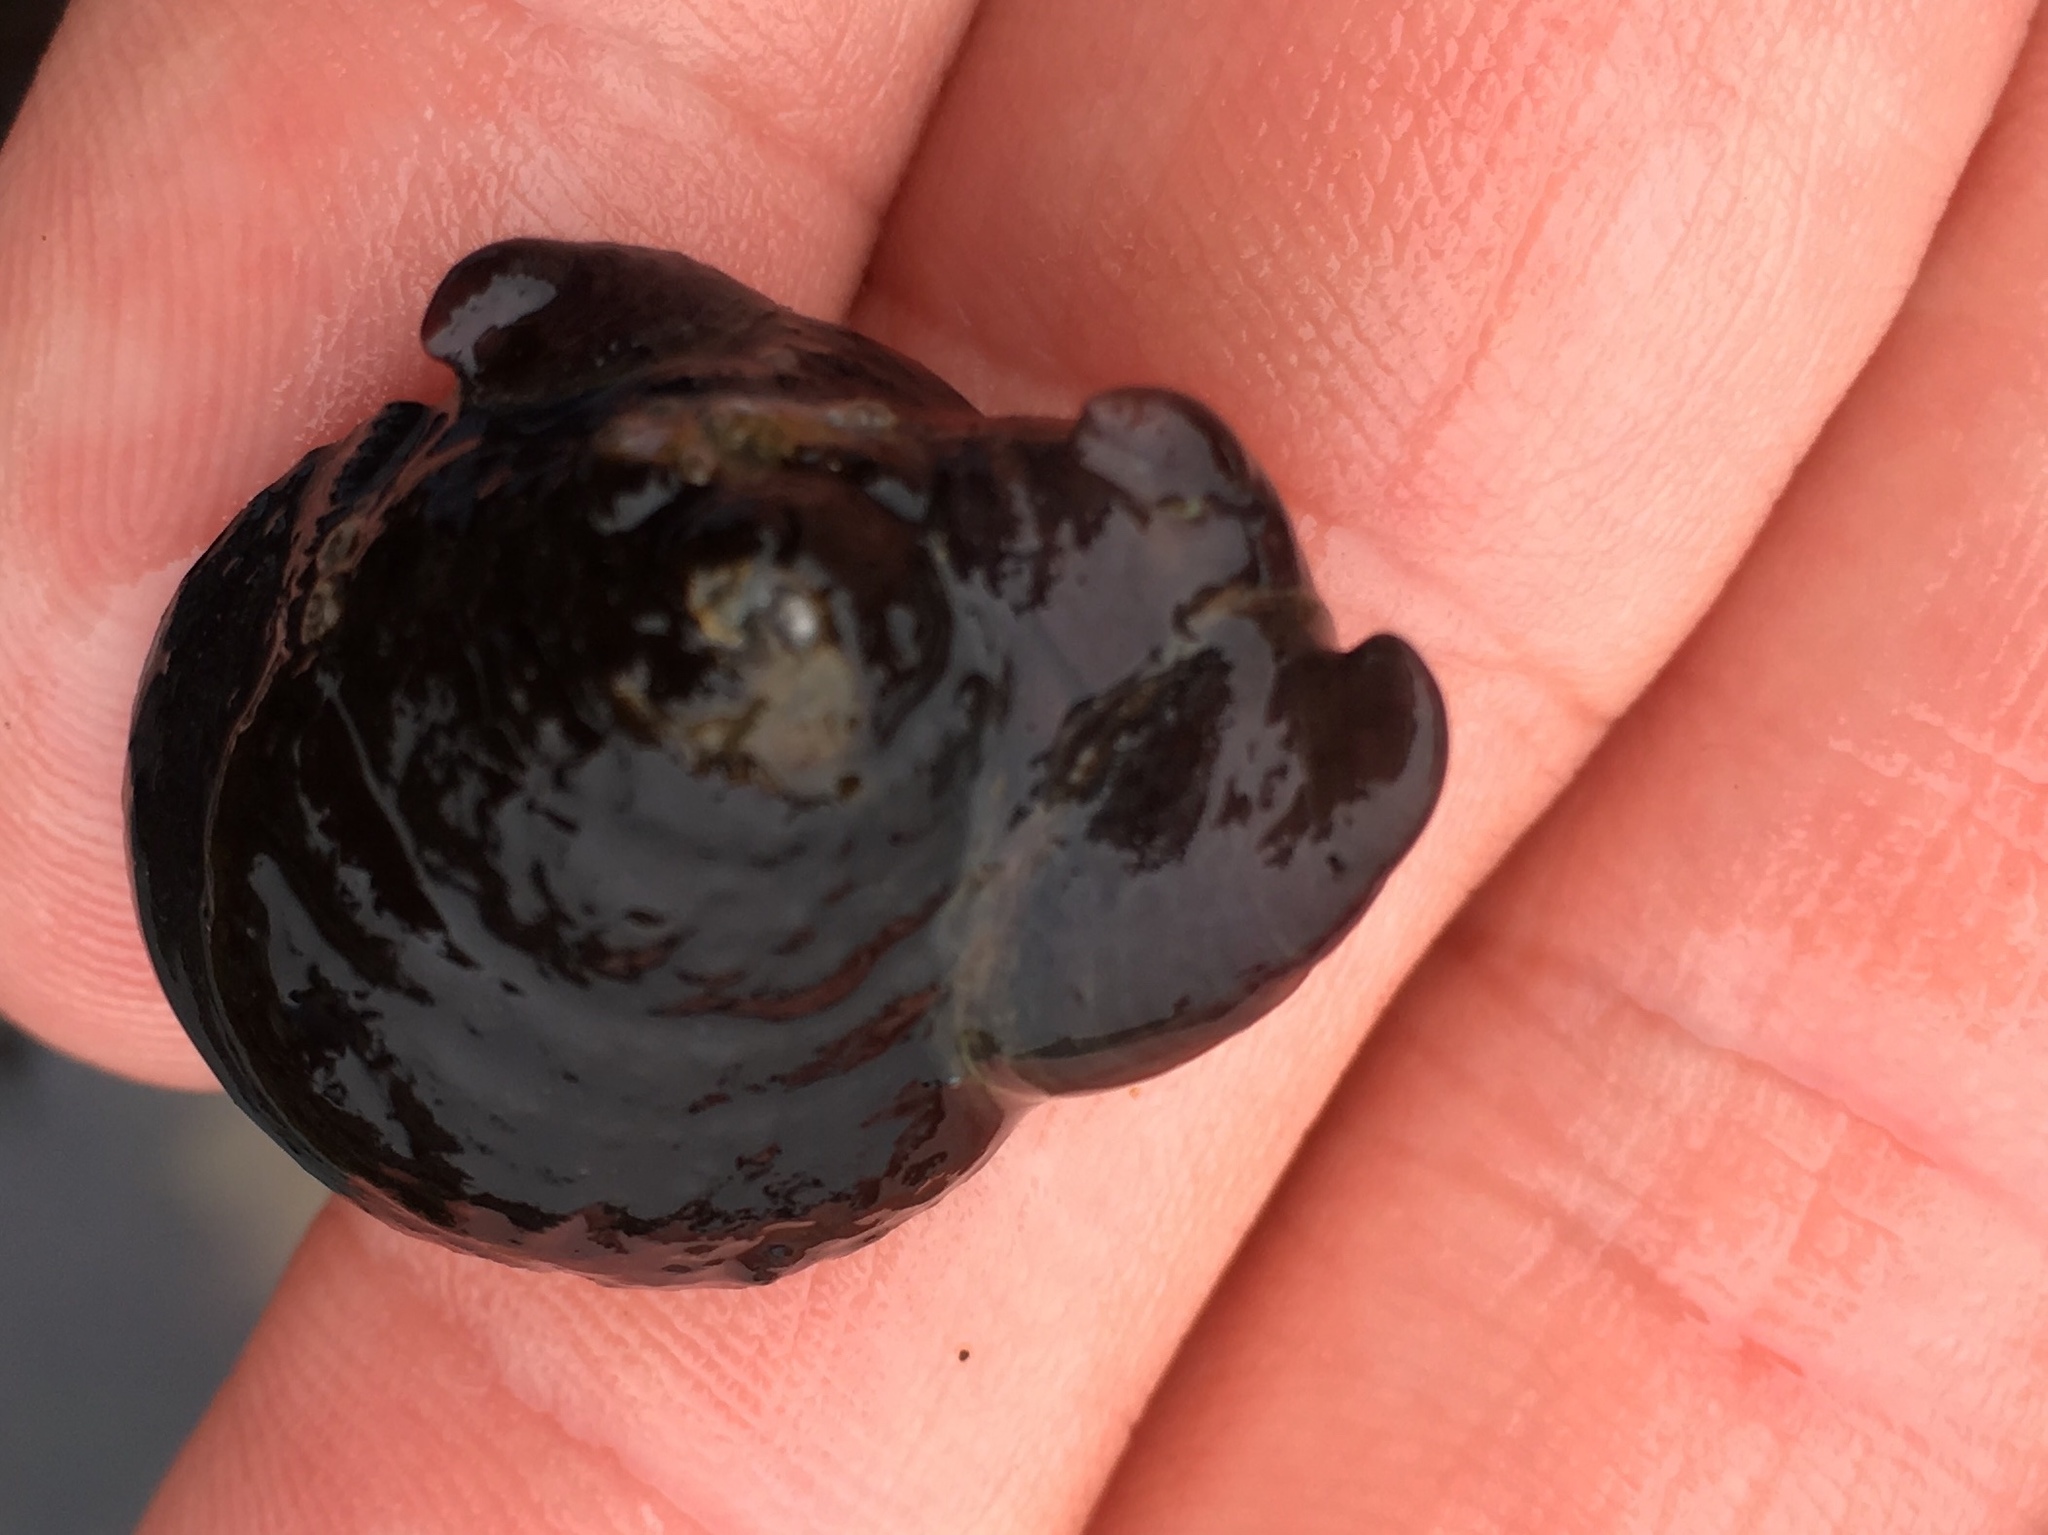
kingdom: Animalia
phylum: Mollusca
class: Gastropoda
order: Littorinimorpha
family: Calyptraeidae
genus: Crepidula
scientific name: Crepidula adunca
